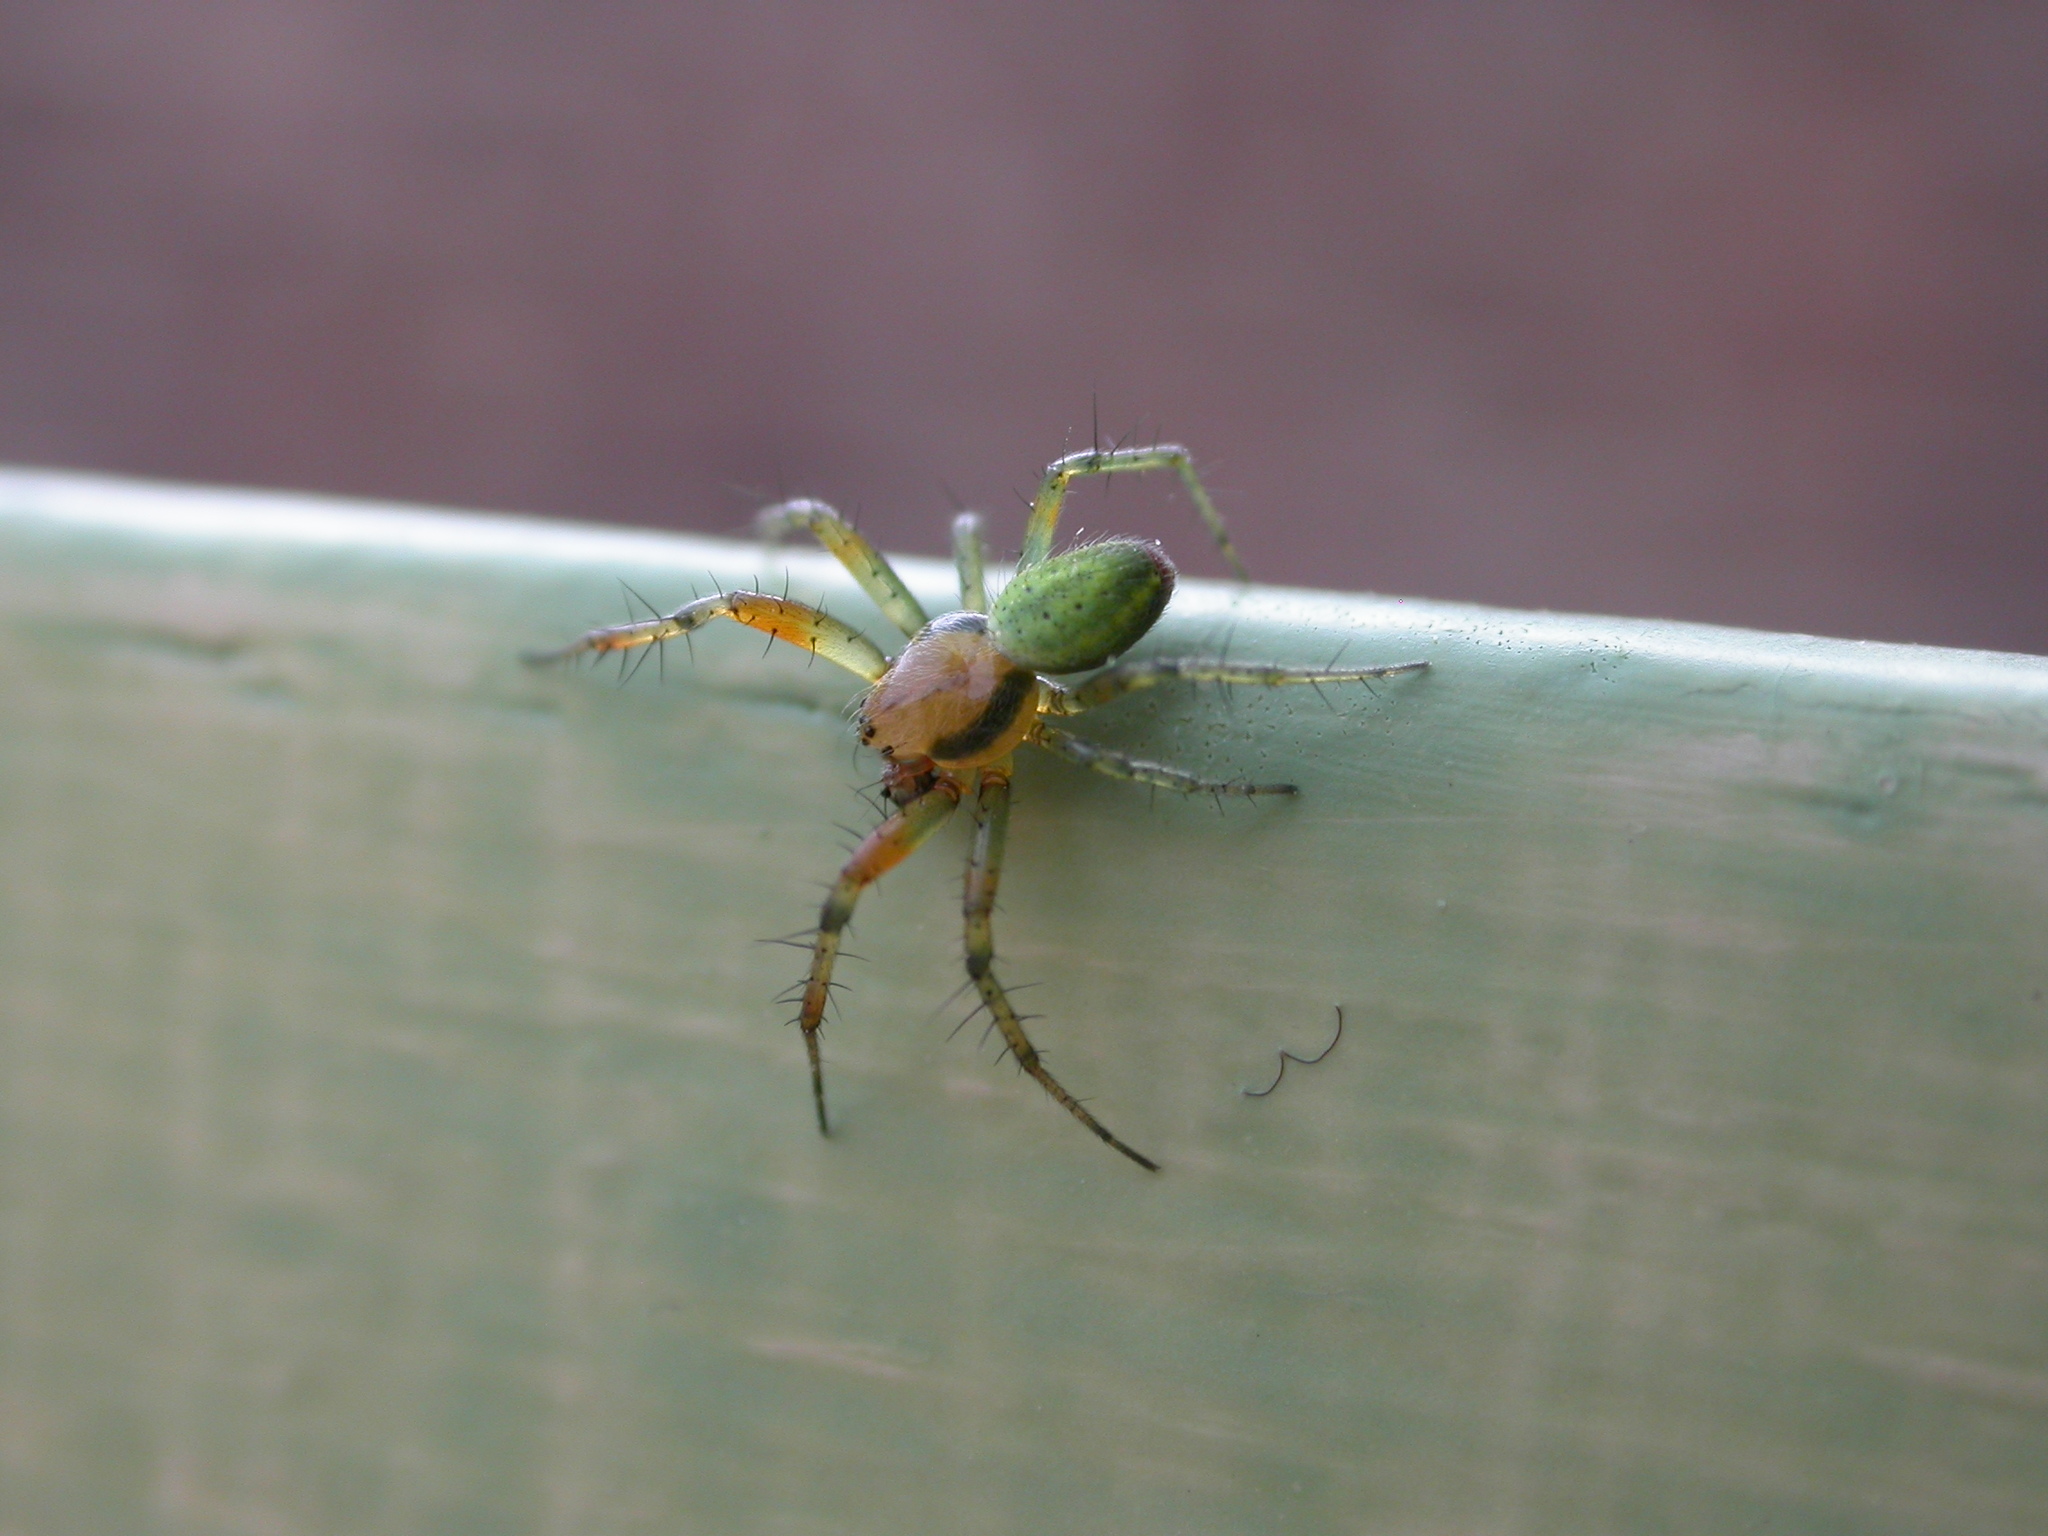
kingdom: Animalia
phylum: Arthropoda
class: Arachnida
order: Araneae
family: Araneidae
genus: Araniella
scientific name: Araniella
